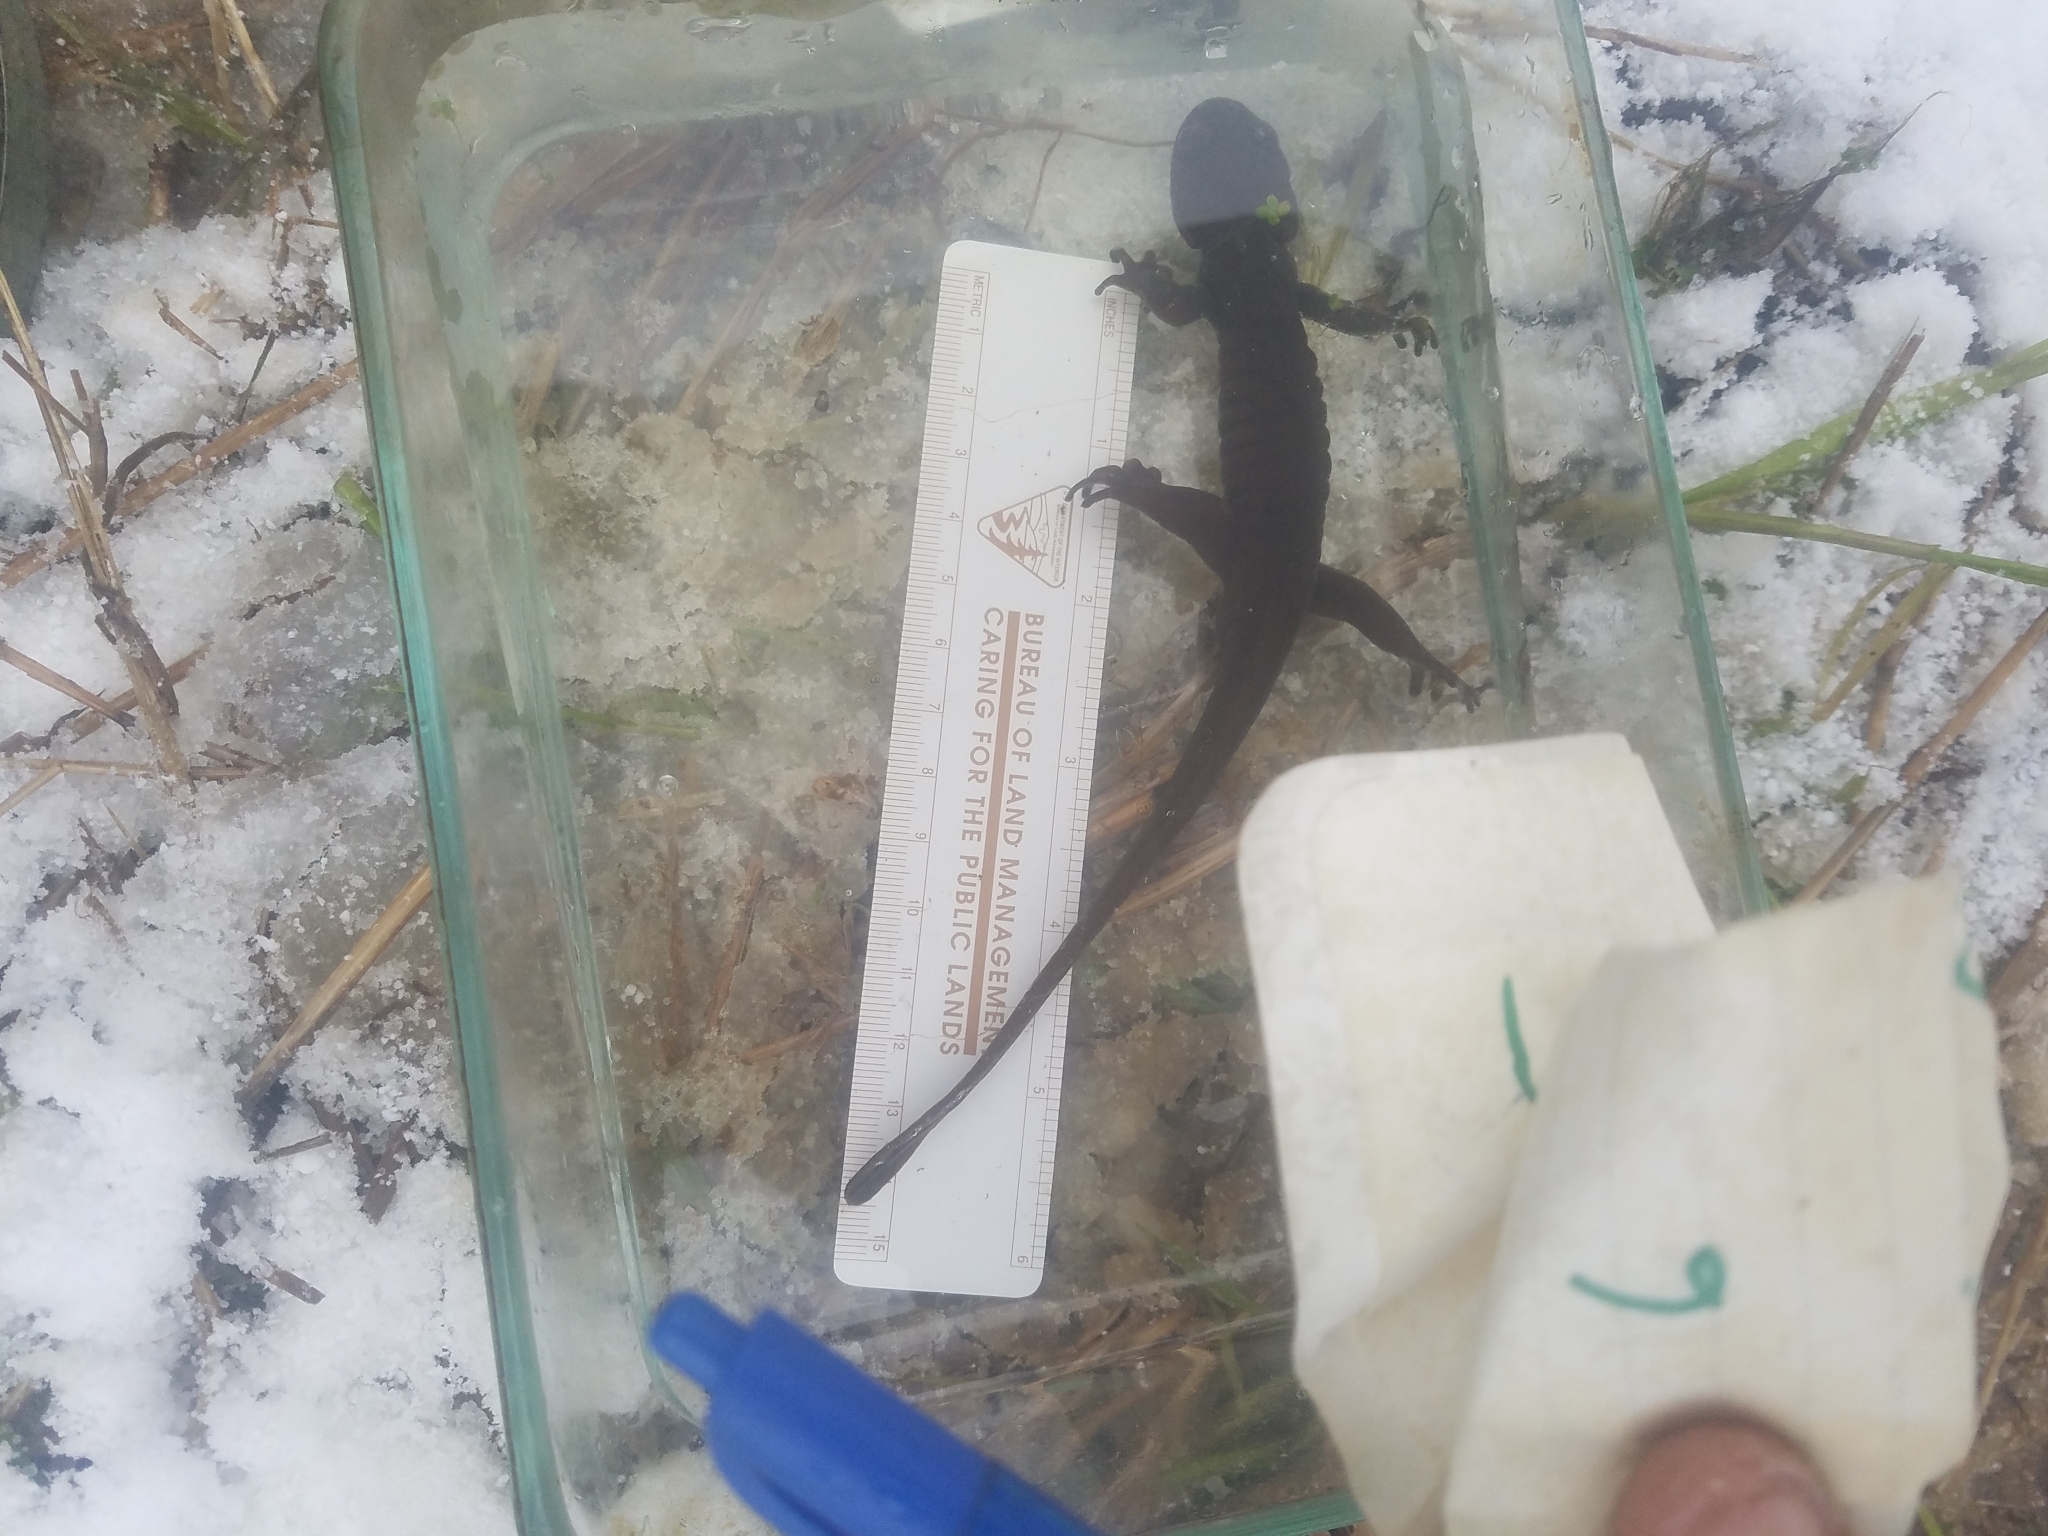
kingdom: Animalia
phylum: Chordata
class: Amphibia
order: Caudata
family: Ambystomatidae
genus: Ambystoma
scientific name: Ambystoma gracile
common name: Northwestern salamander
